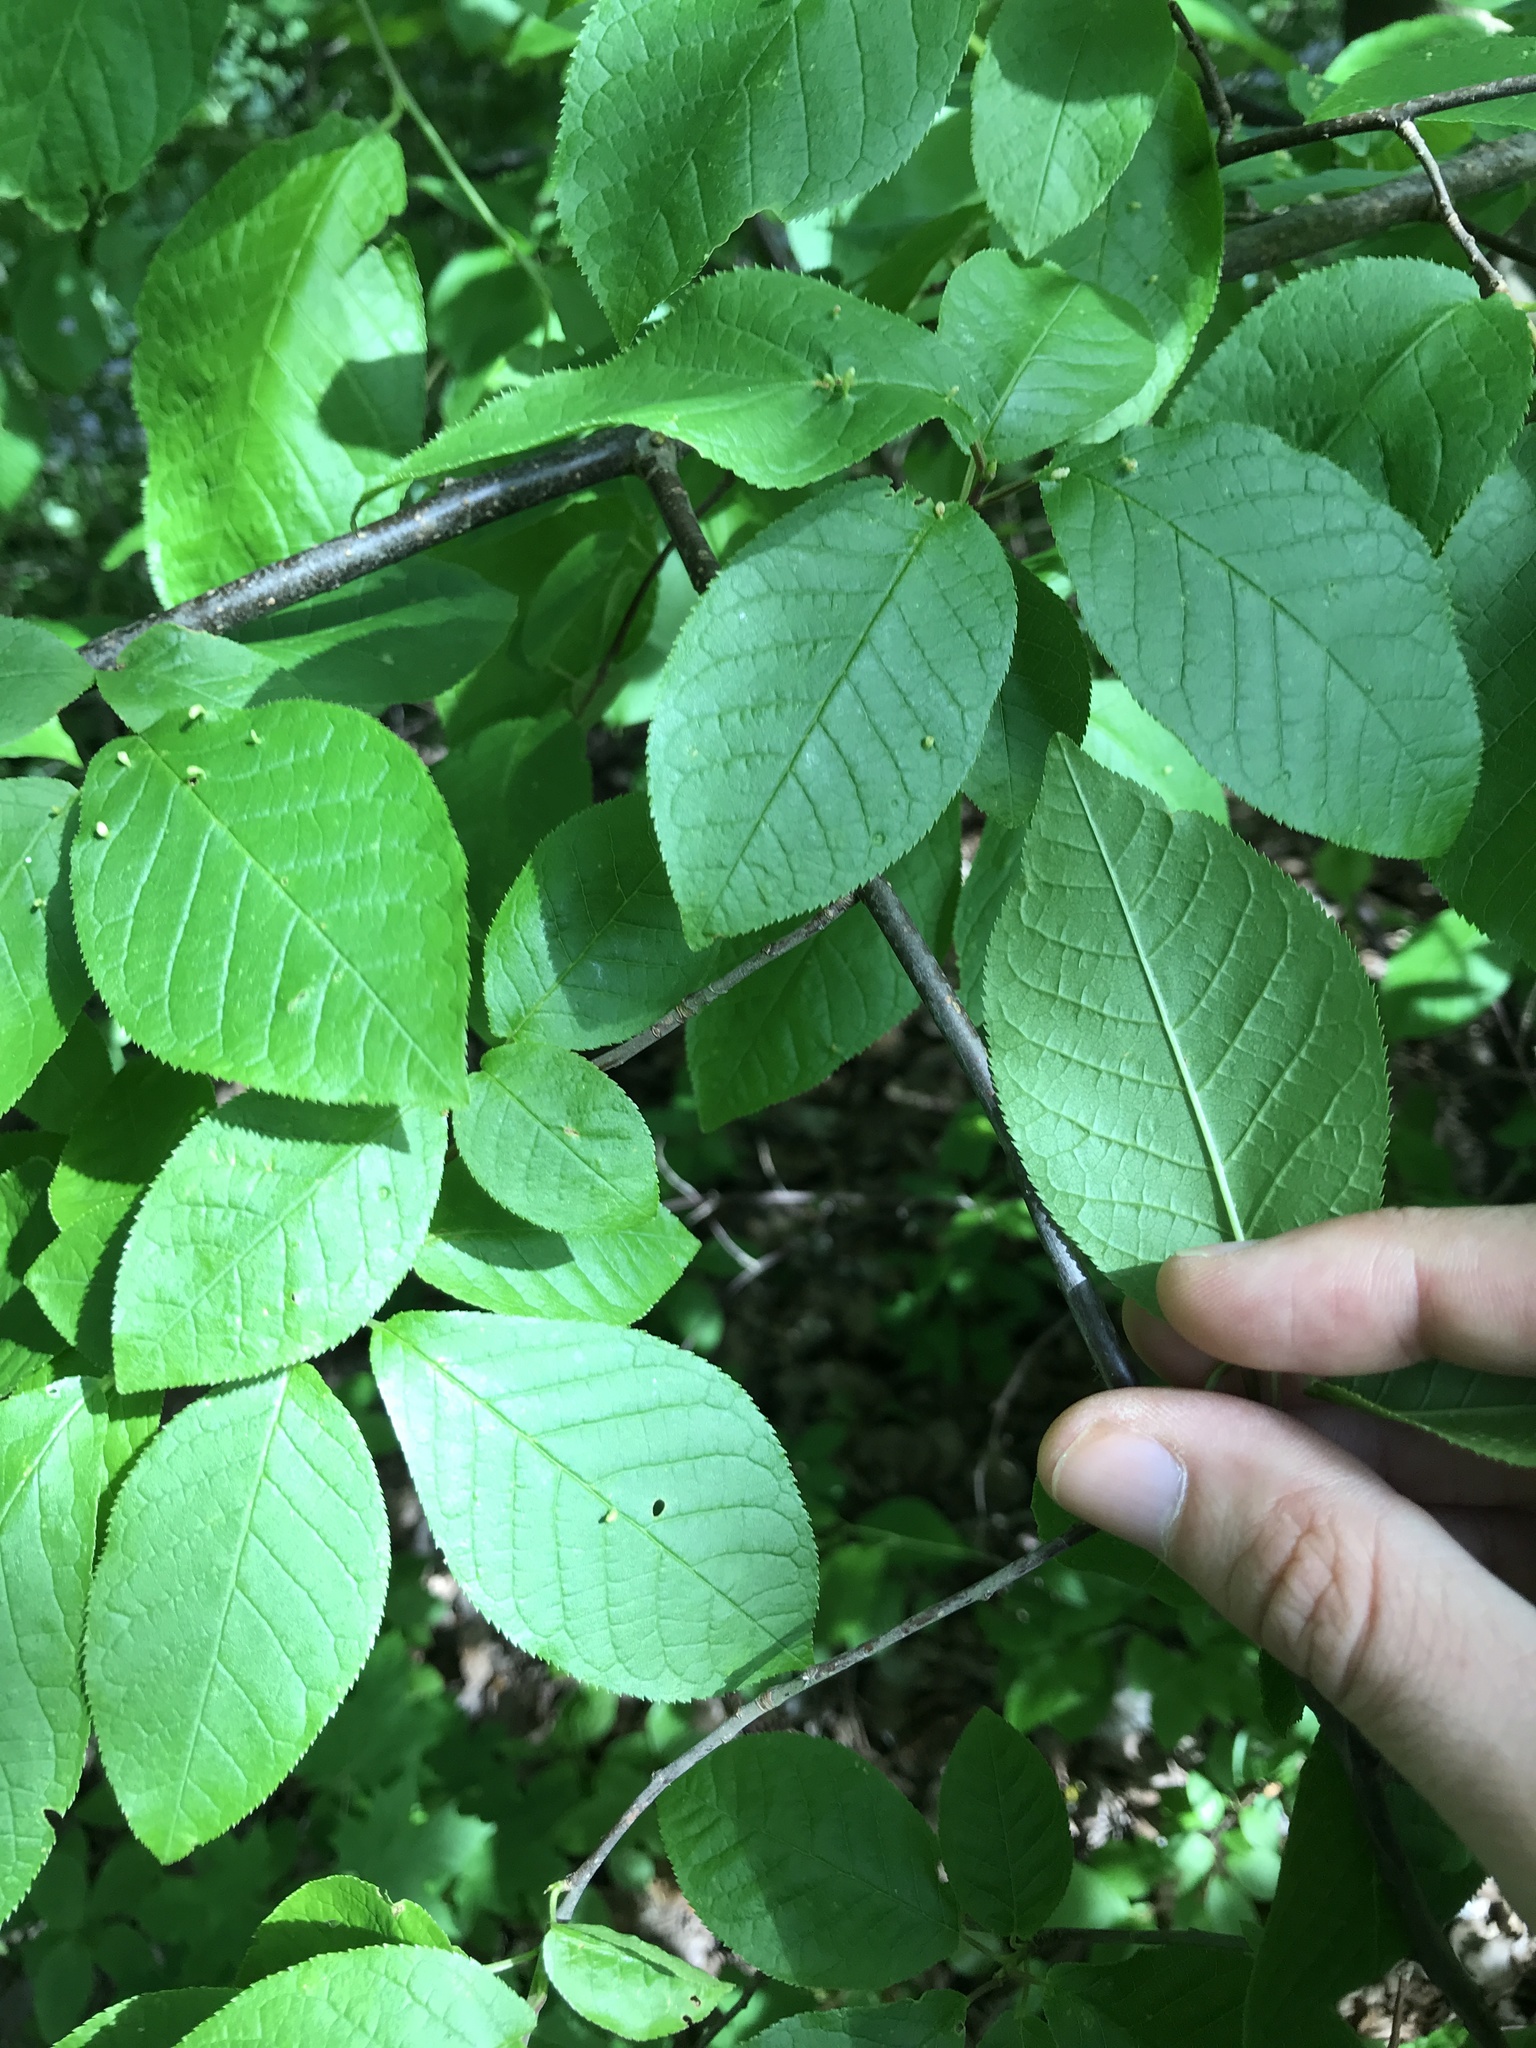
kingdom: Plantae
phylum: Tracheophyta
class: Magnoliopsida
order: Rosales
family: Rosaceae
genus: Prunus
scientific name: Prunus padus
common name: Bird cherry
